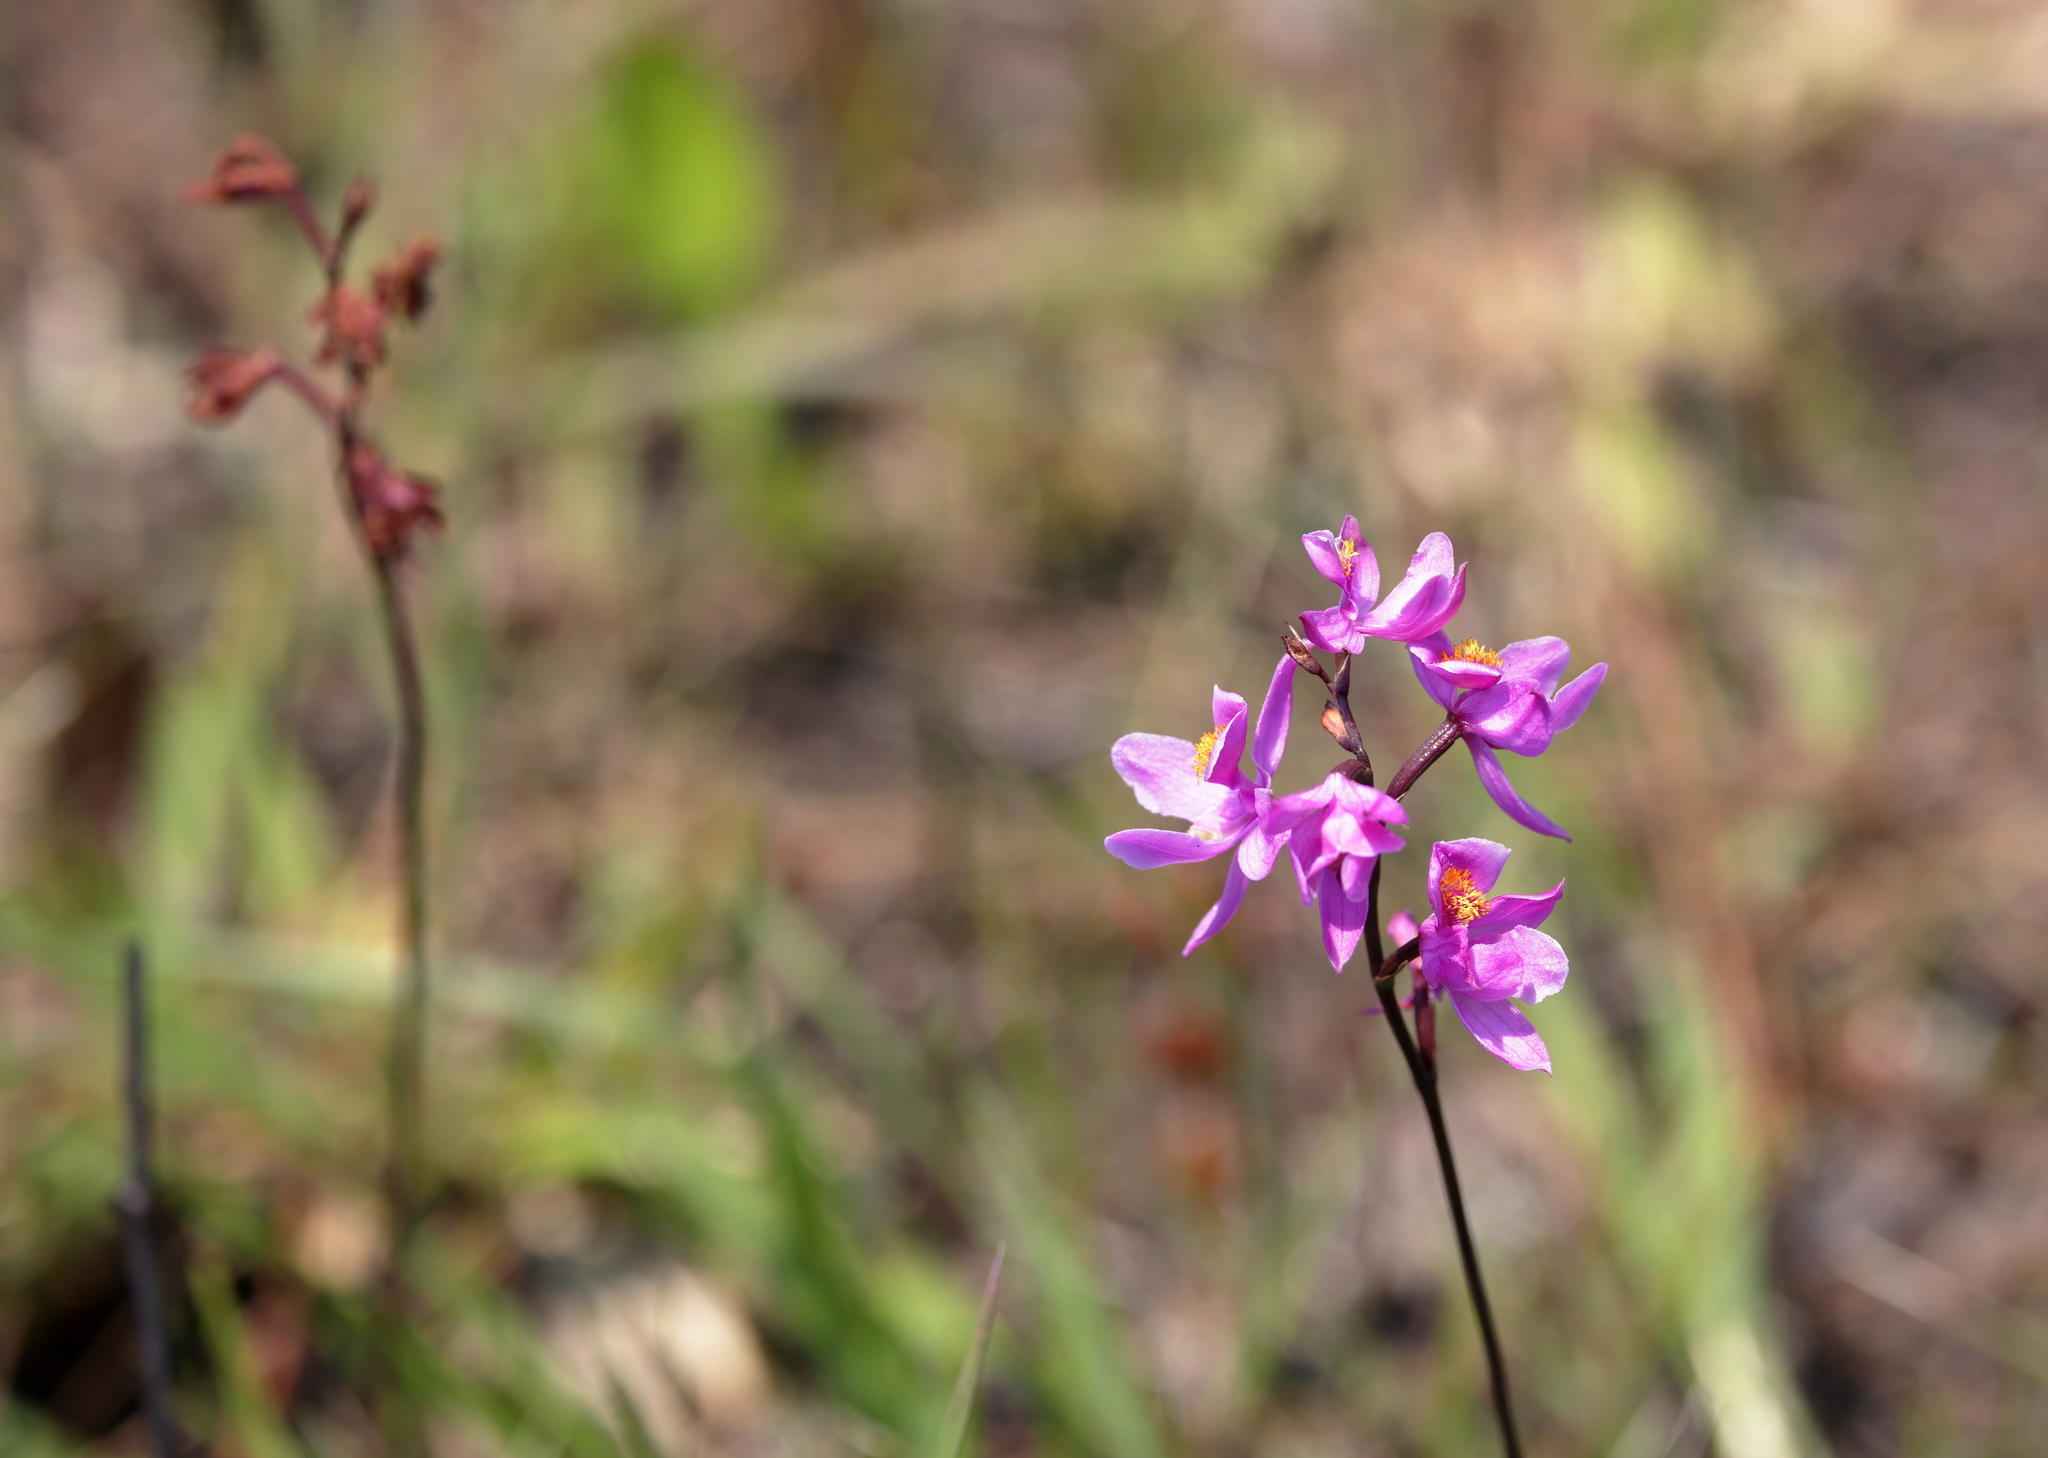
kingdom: Plantae
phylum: Tracheophyta
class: Liliopsida
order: Asparagales
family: Orchidaceae
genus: Calopogon
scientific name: Calopogon multiflorus
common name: Many-flowered grass-pink orchid
